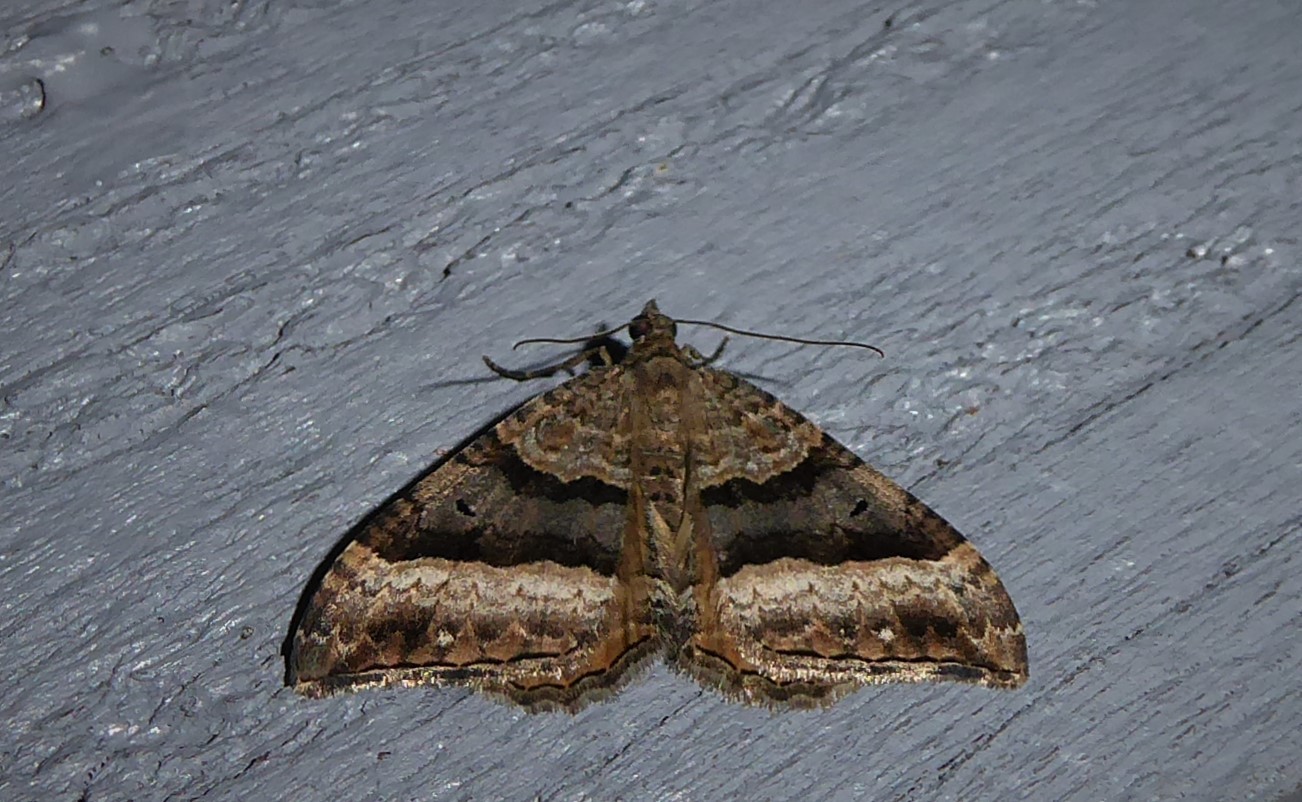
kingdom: Animalia
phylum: Arthropoda
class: Insecta
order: Lepidoptera
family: Geometridae
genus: Hydriomena
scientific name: Hydriomena deltoidata
